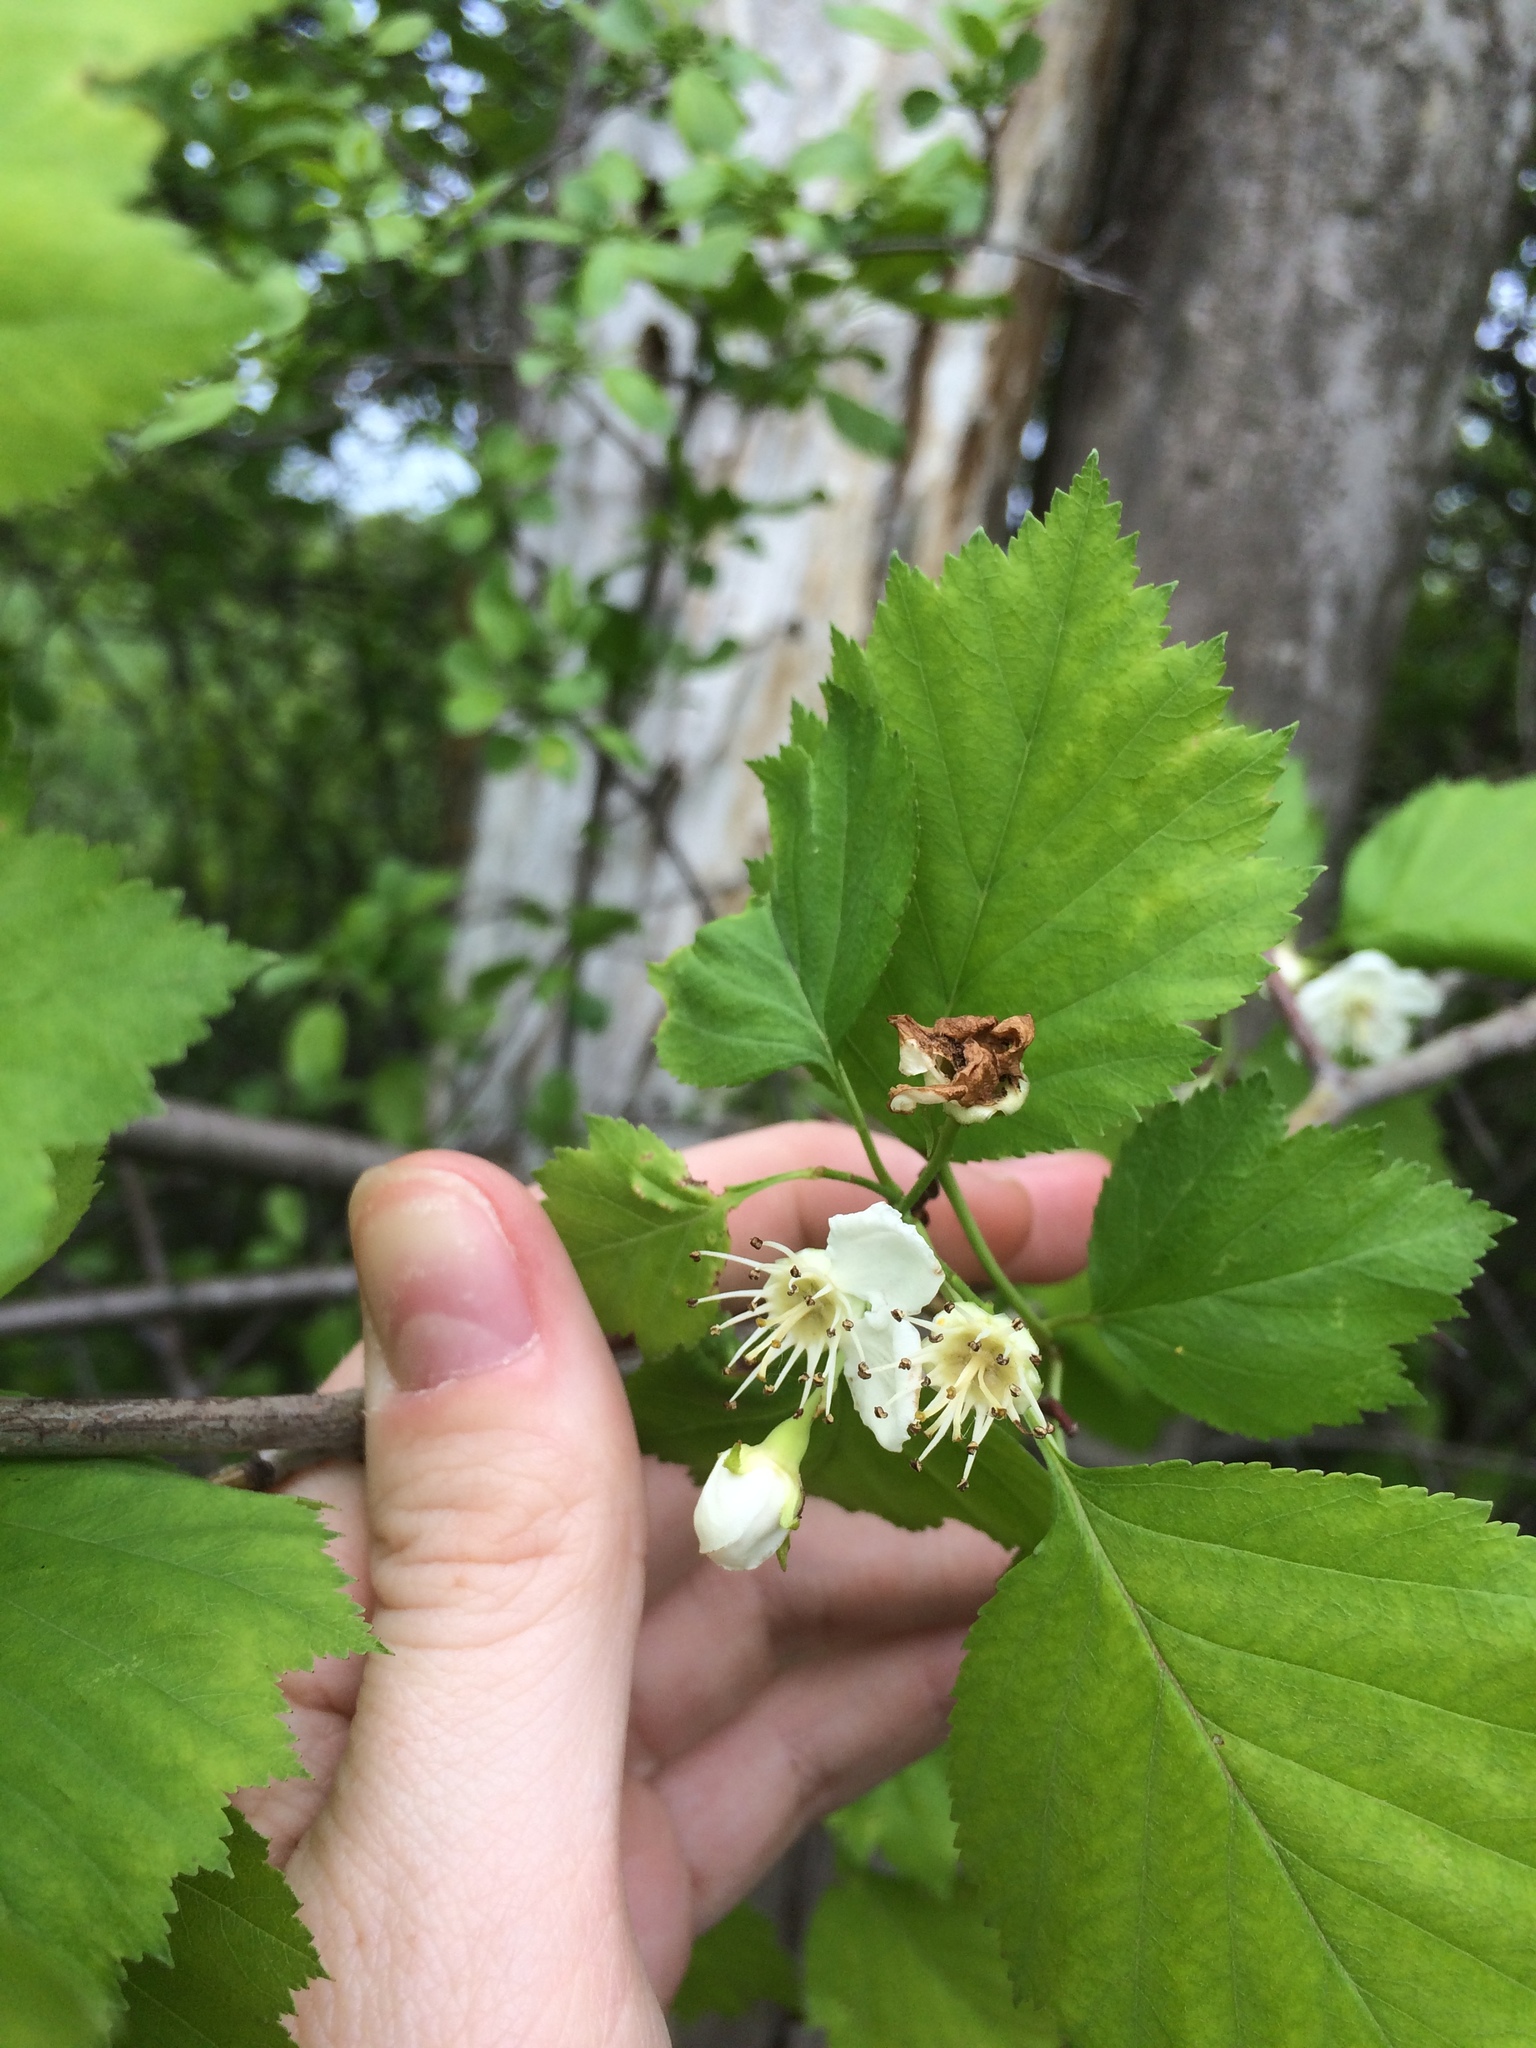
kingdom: Plantae
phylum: Tracheophyta
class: Magnoliopsida
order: Rosales
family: Rosaceae
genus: Crataegus
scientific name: Crataegus schuettei
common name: Schuette's hawthorn
